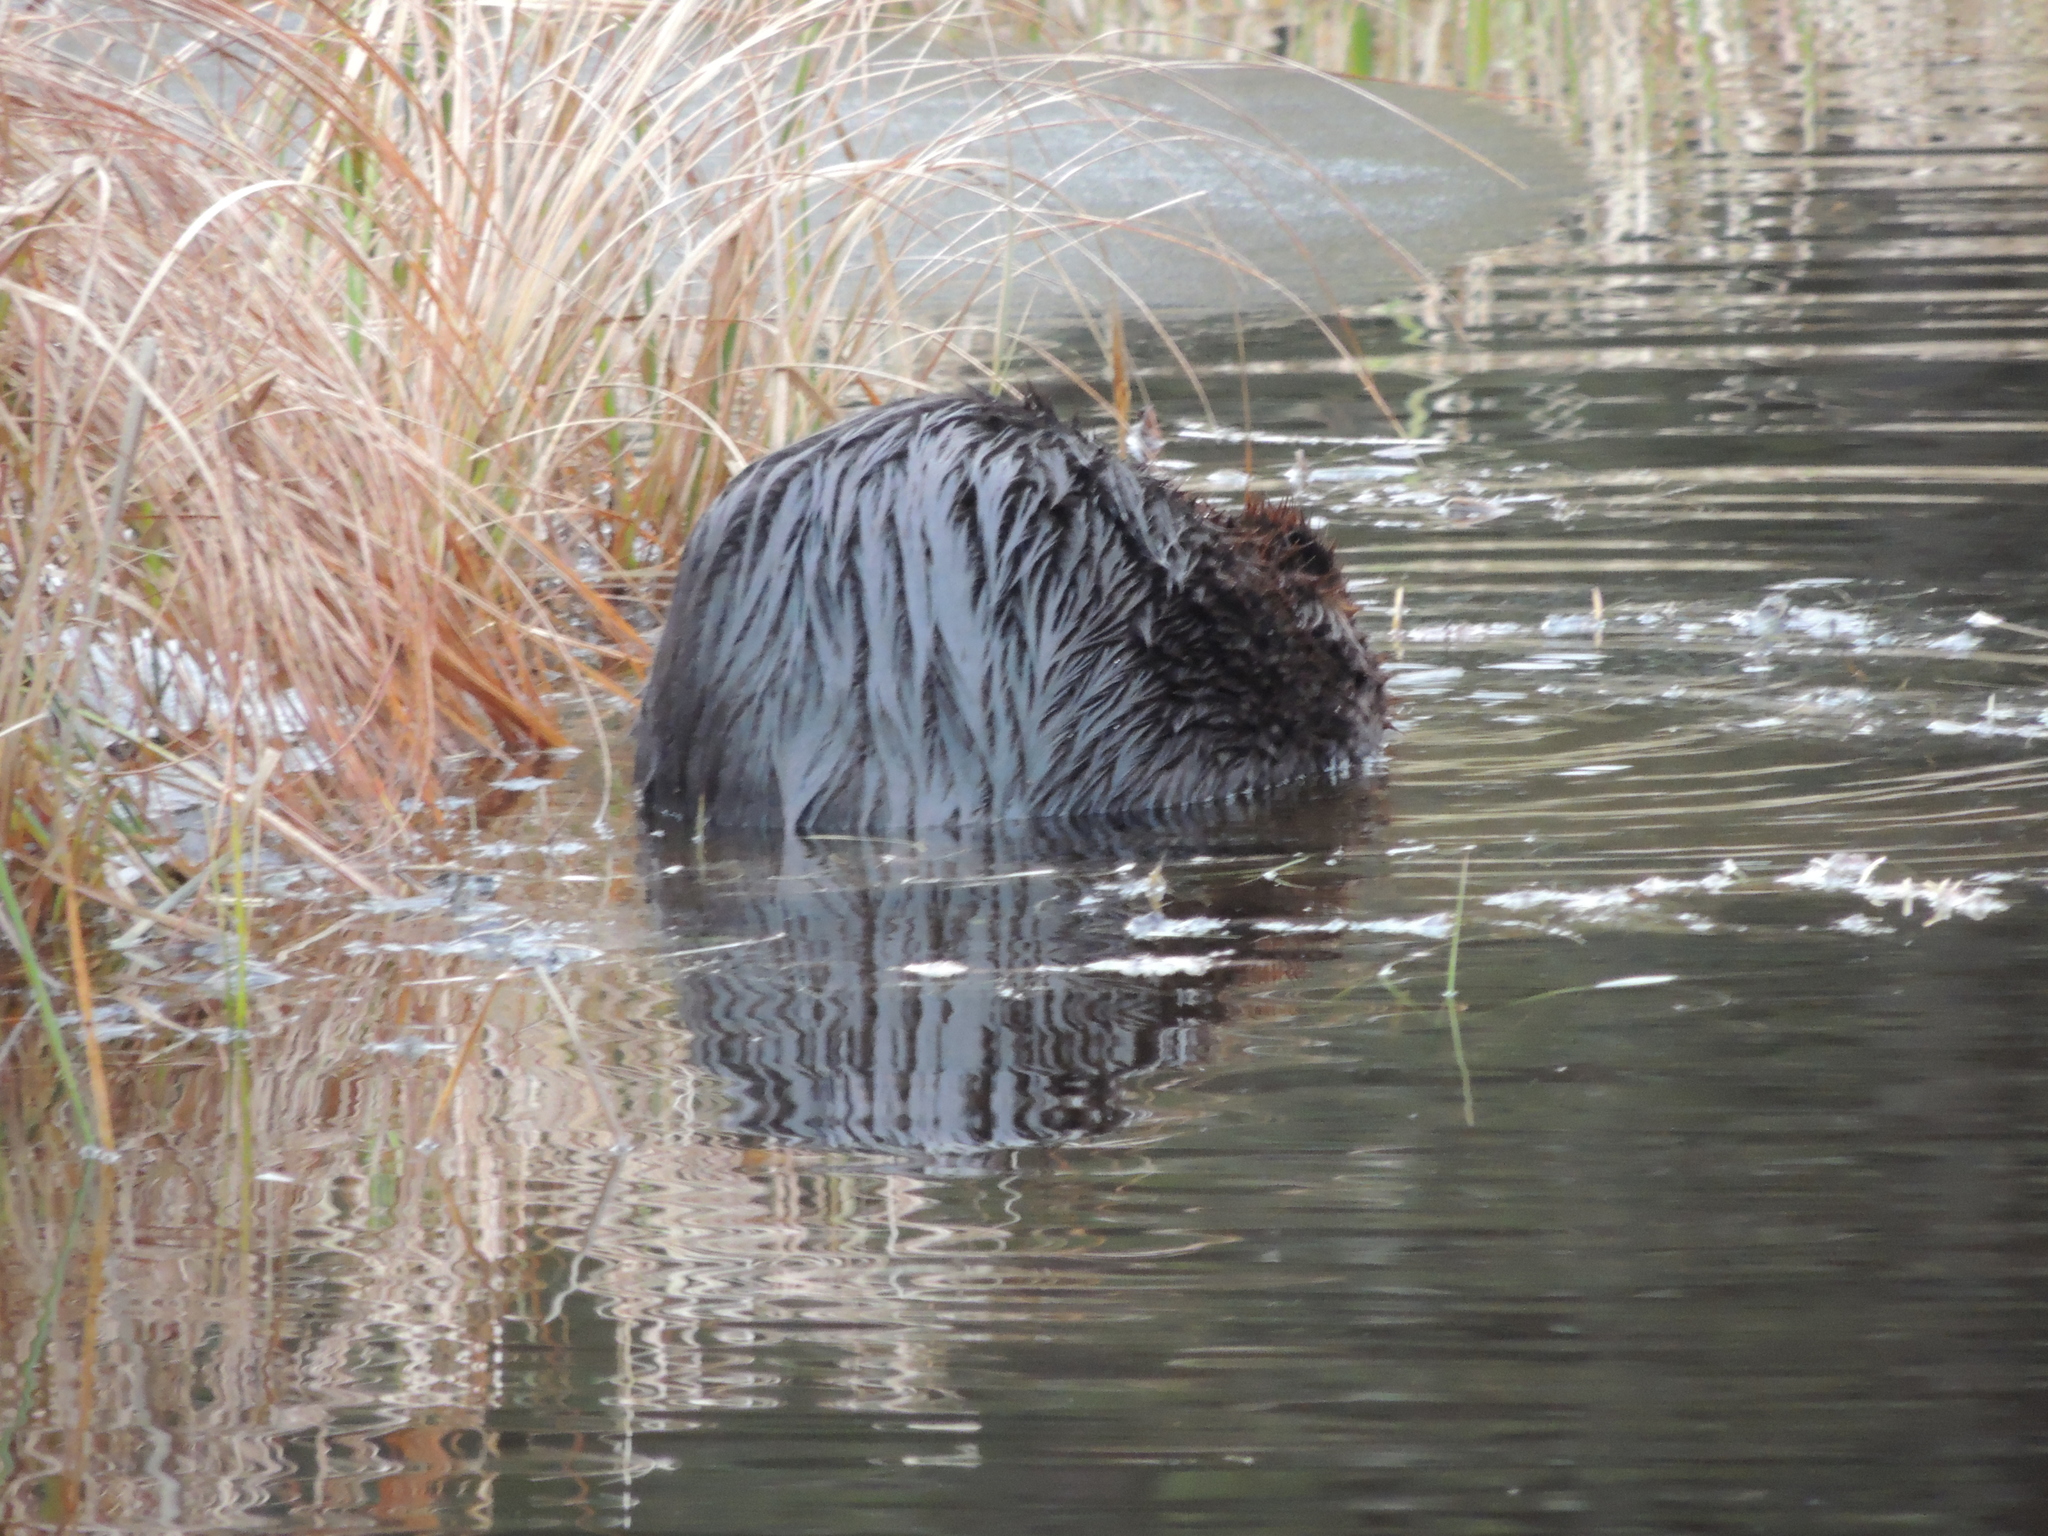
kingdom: Animalia
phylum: Chordata
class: Mammalia
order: Rodentia
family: Castoridae
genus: Castor
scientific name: Castor canadensis
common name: American beaver
